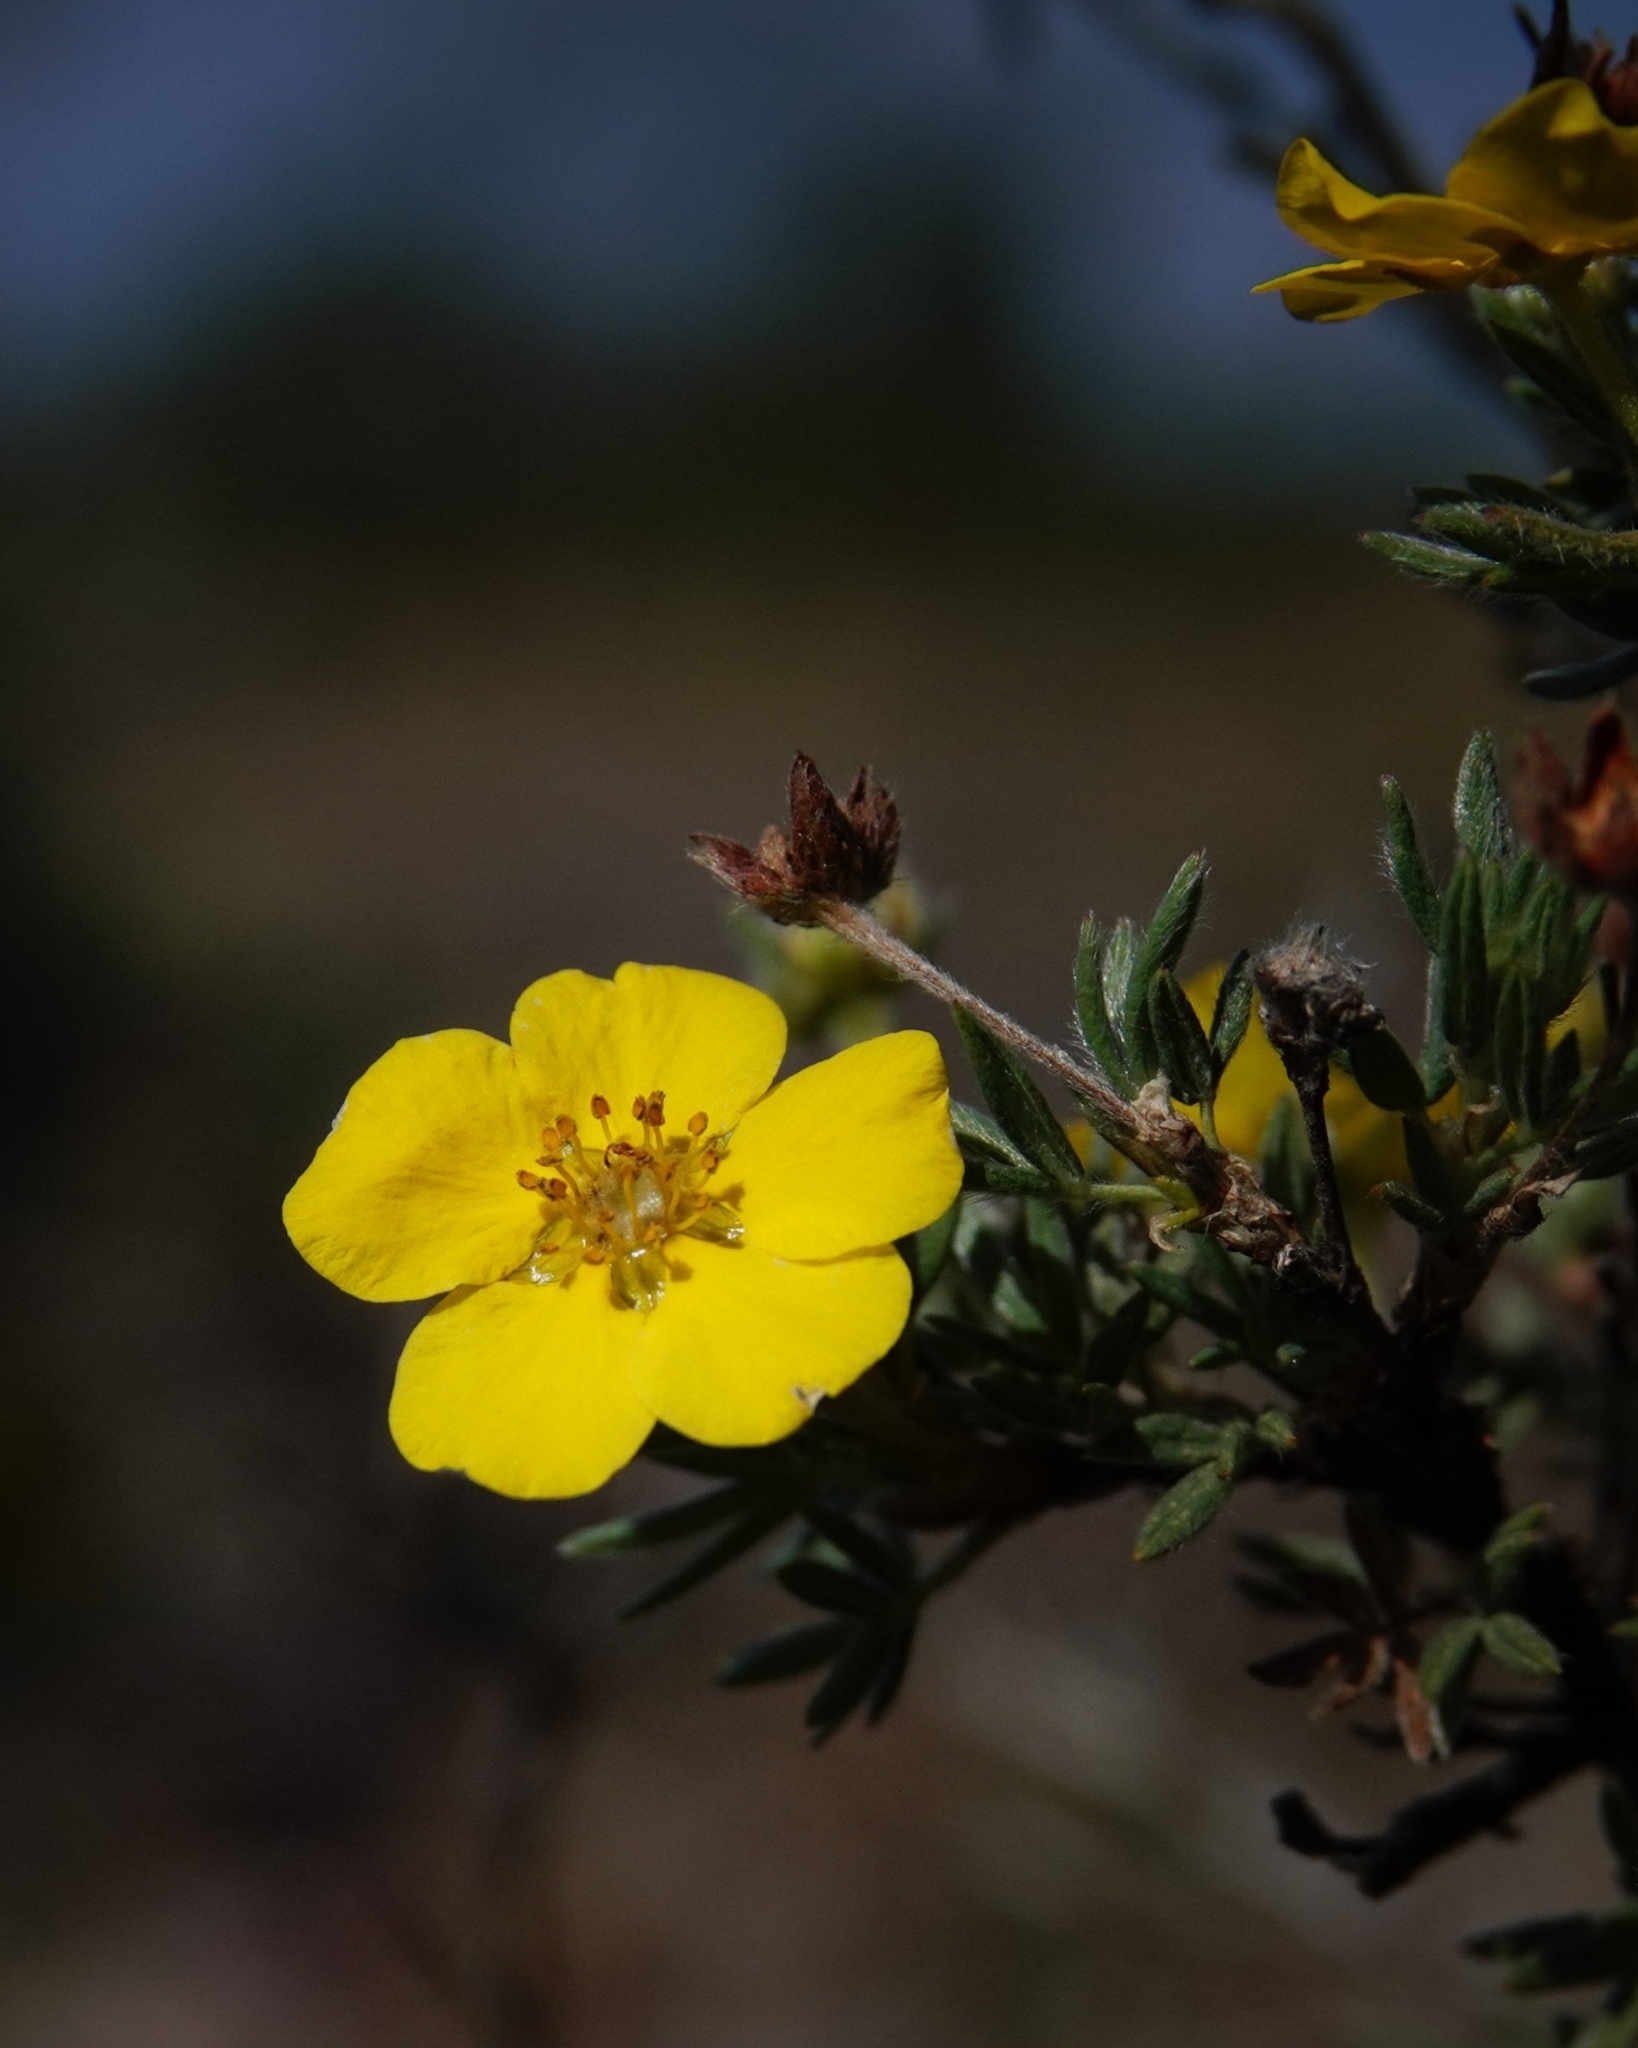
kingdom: Plantae
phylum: Tracheophyta
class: Magnoliopsida
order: Rosales
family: Rosaceae
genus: Dasiphora
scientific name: Dasiphora fruticosa
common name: Shrubby cinquefoil
